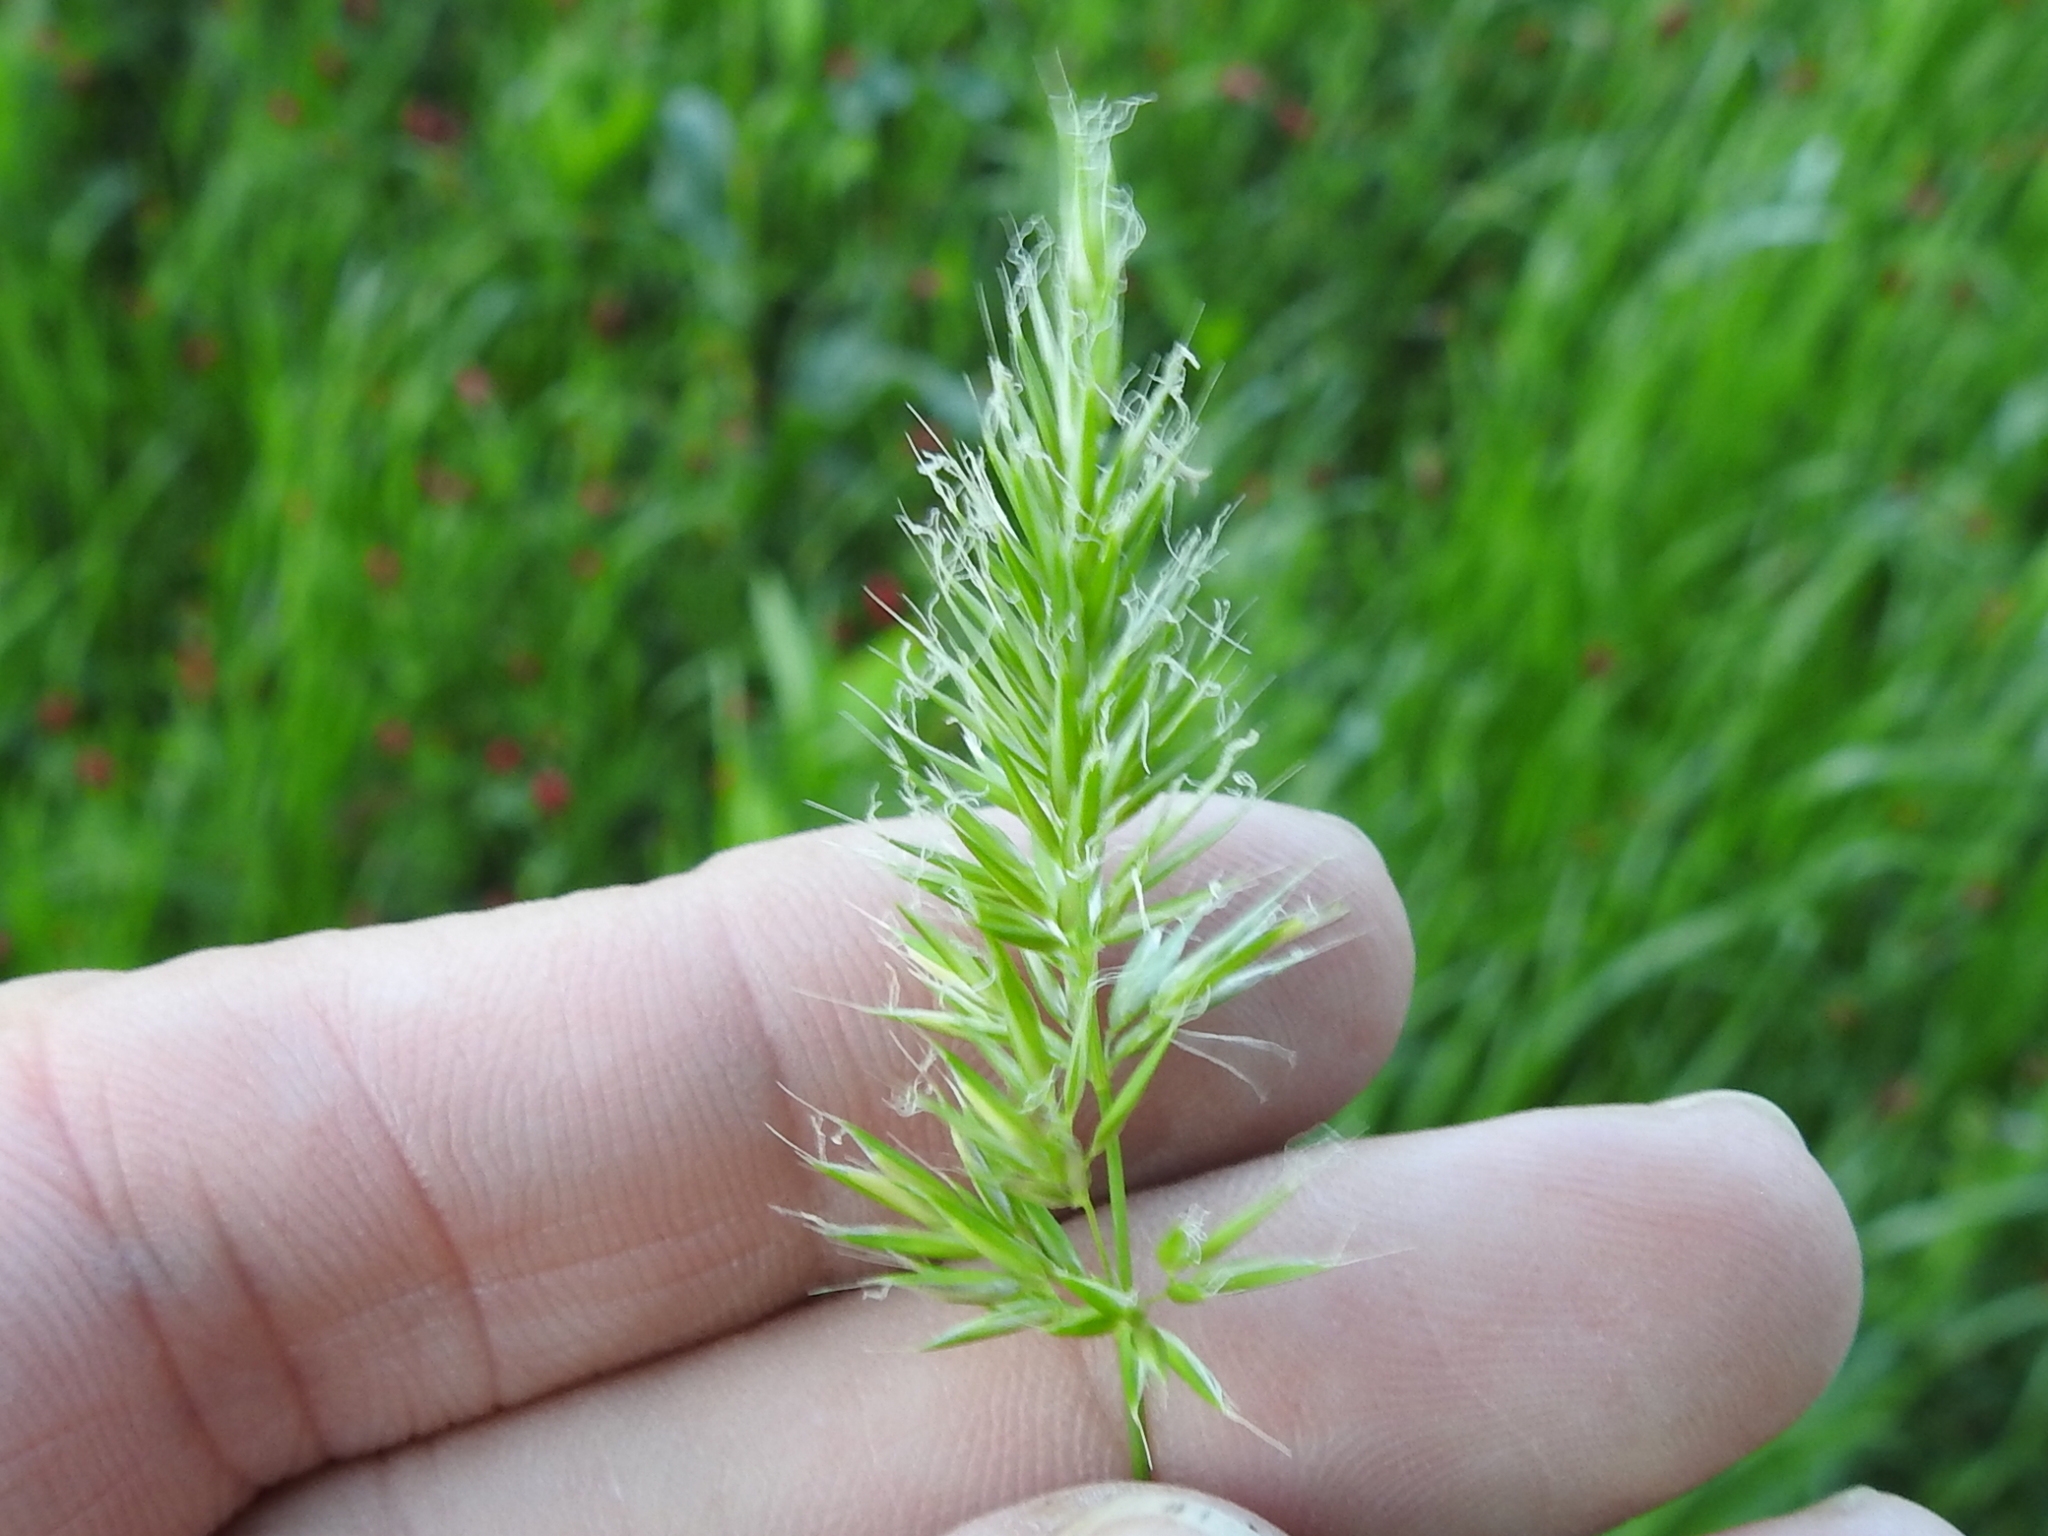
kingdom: Plantae
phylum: Tracheophyta
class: Liliopsida
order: Poales
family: Poaceae
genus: Anthoxanthum
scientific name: Anthoxanthum odoratum
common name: Sweet vernalgrass
